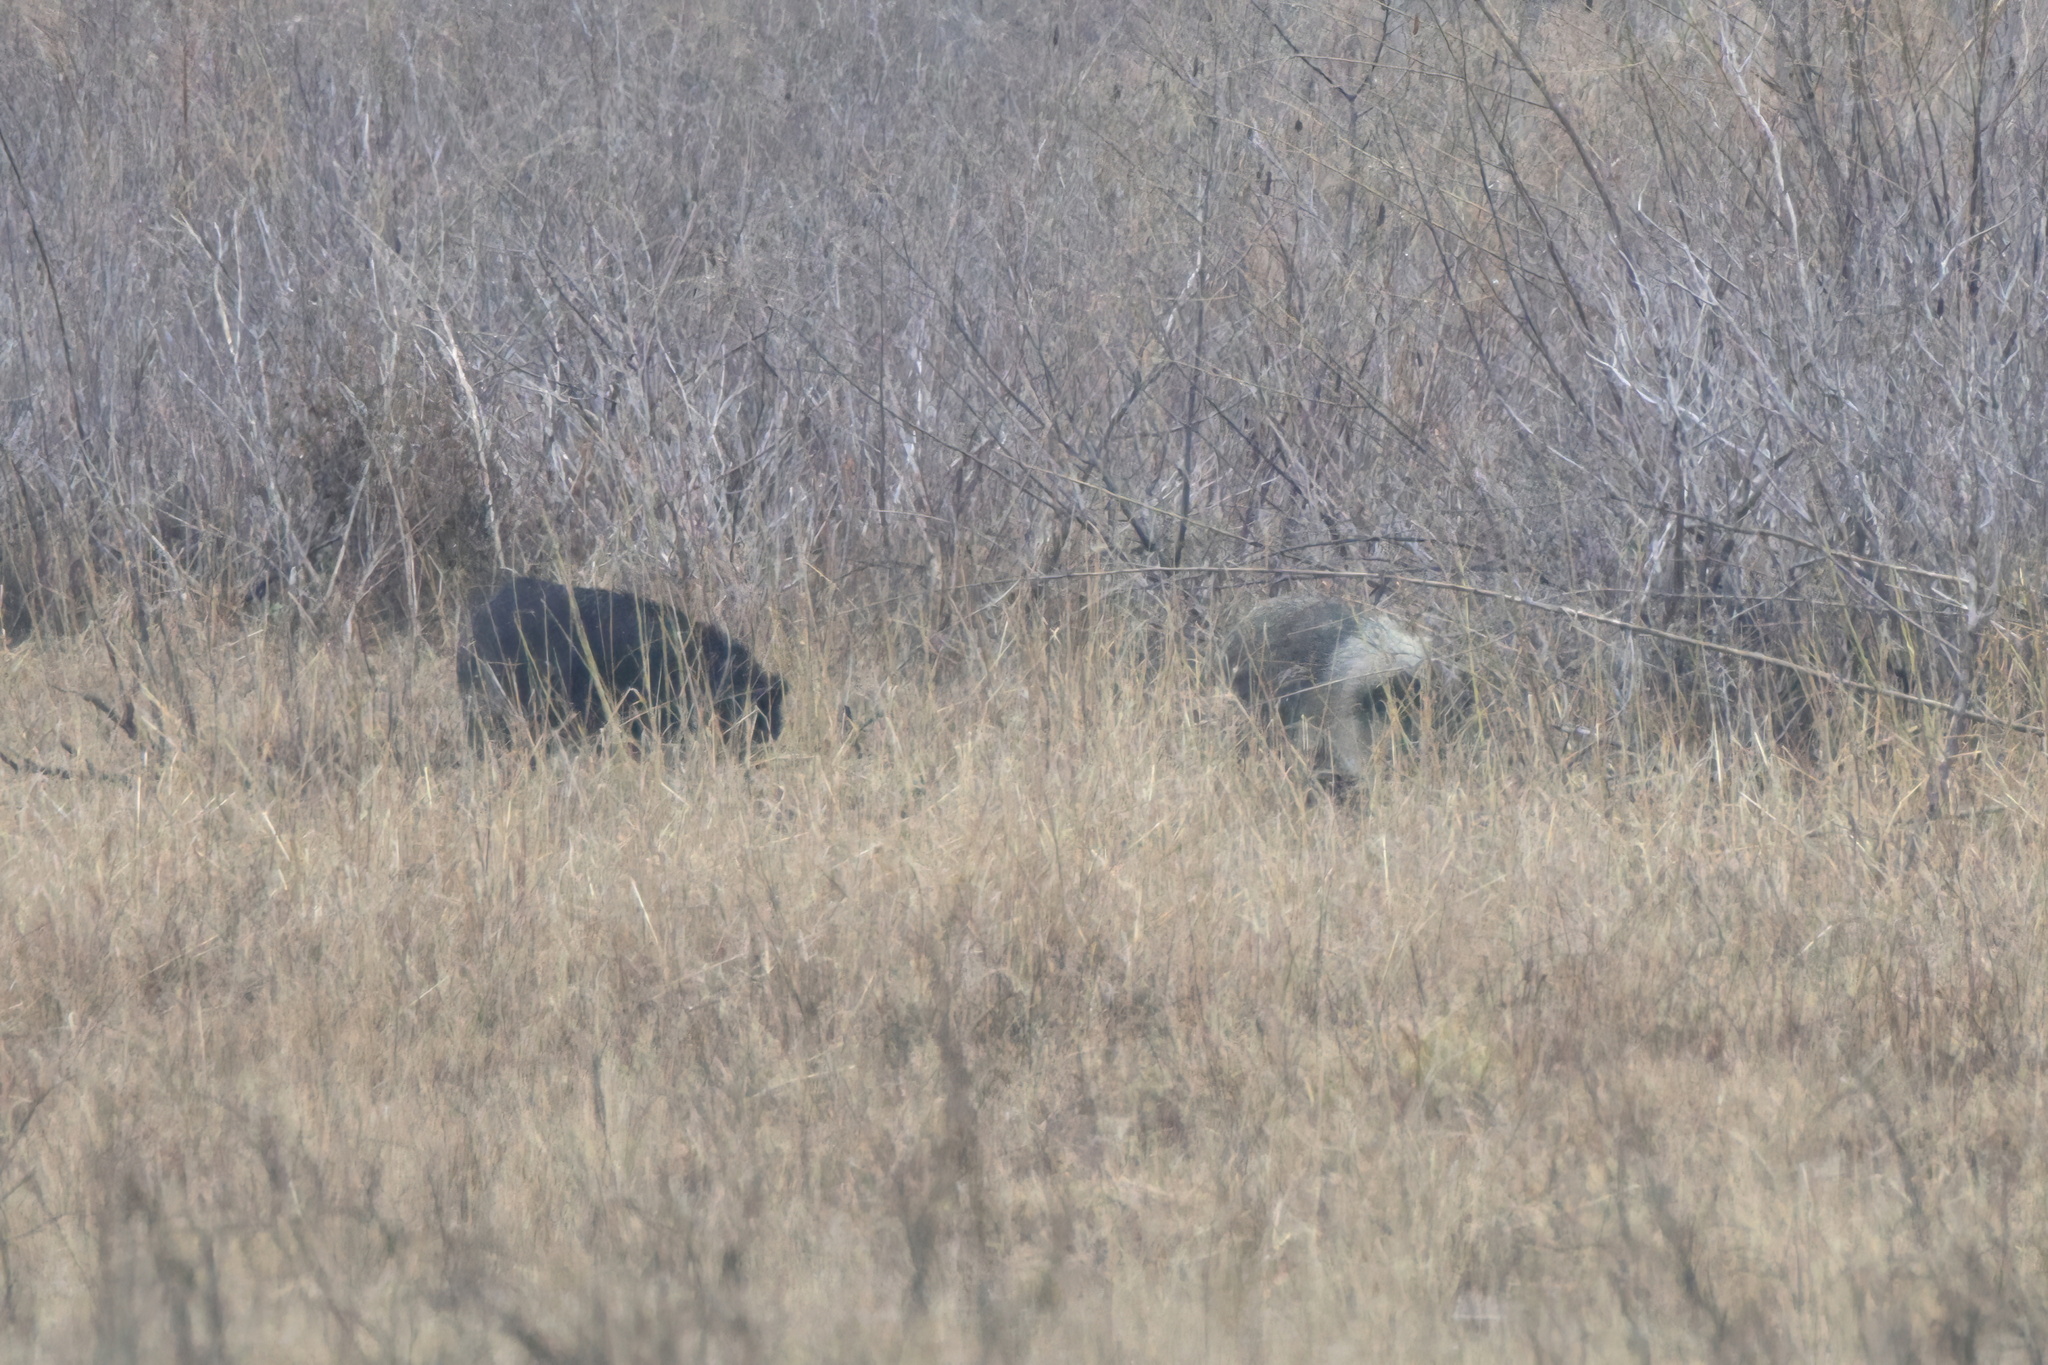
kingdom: Animalia
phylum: Chordata
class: Mammalia
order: Artiodactyla
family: Suidae
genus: Sus
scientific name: Sus scrofa
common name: Wild boar
